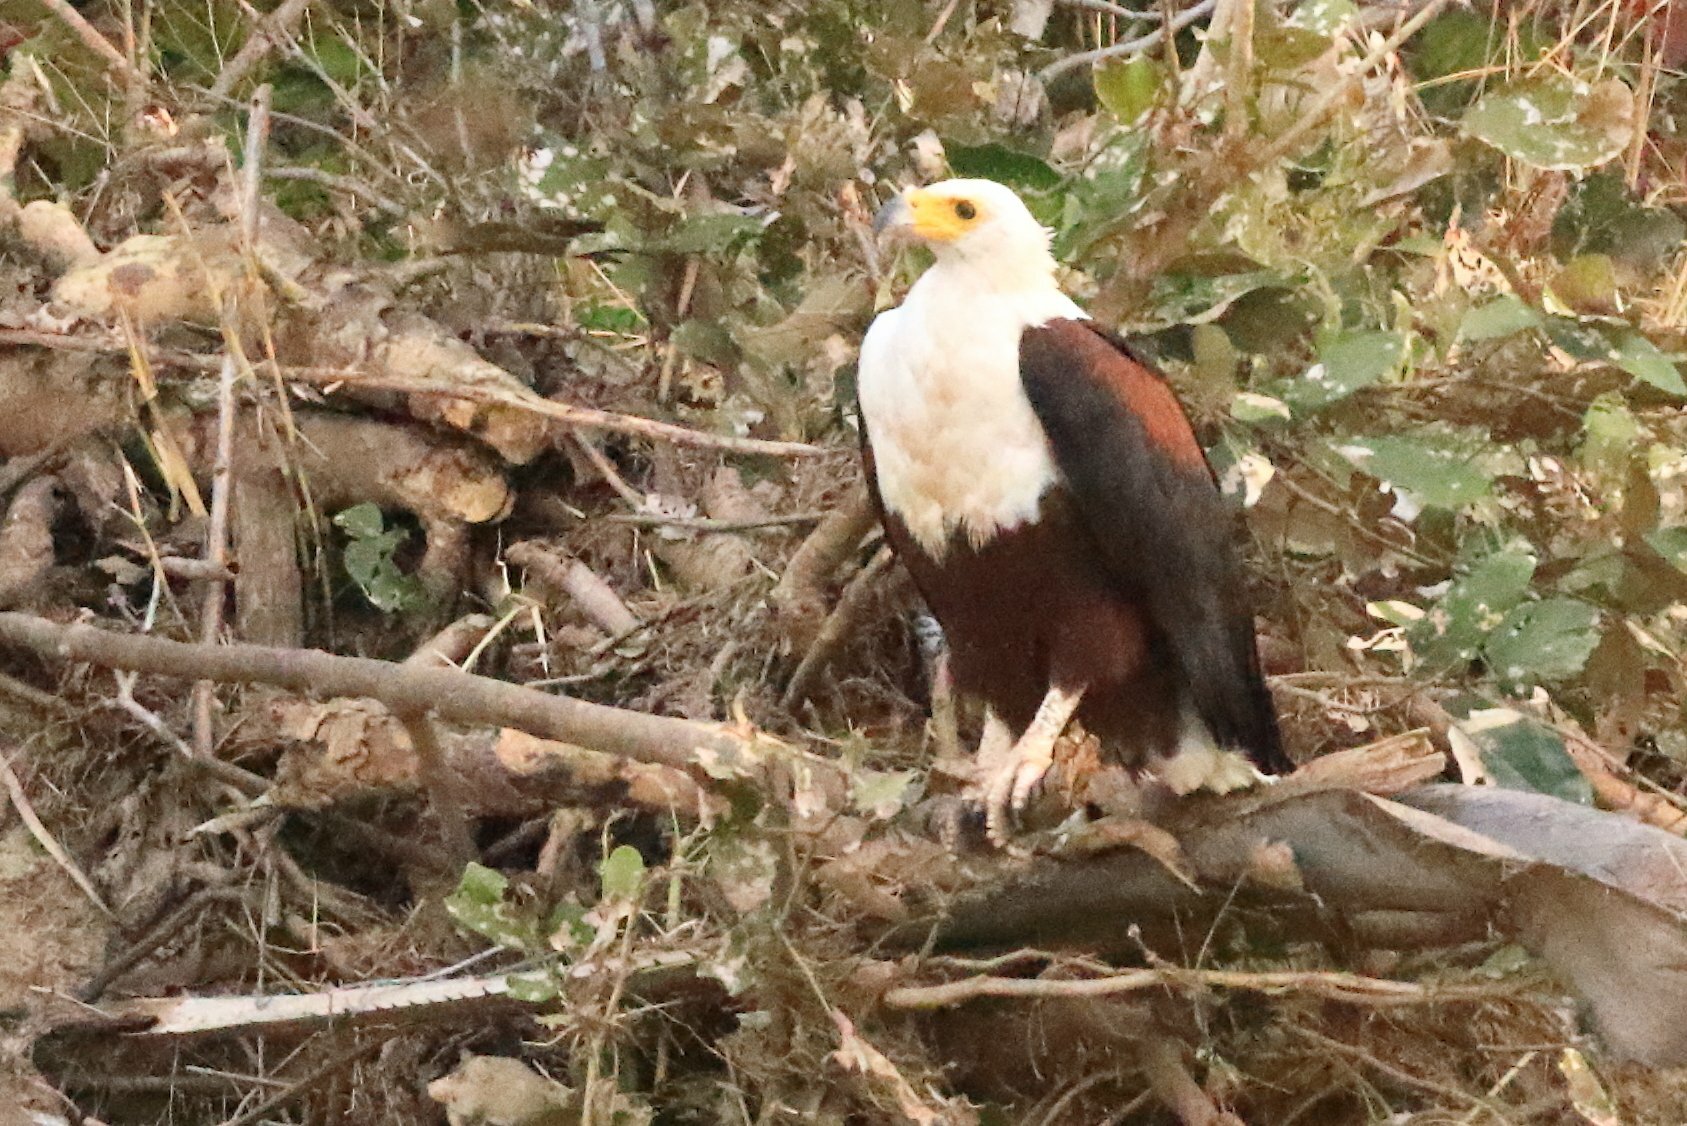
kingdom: Animalia
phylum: Chordata
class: Aves
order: Accipitriformes
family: Accipitridae
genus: Haliaeetus
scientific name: Haliaeetus vocifer
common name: African fish eagle
